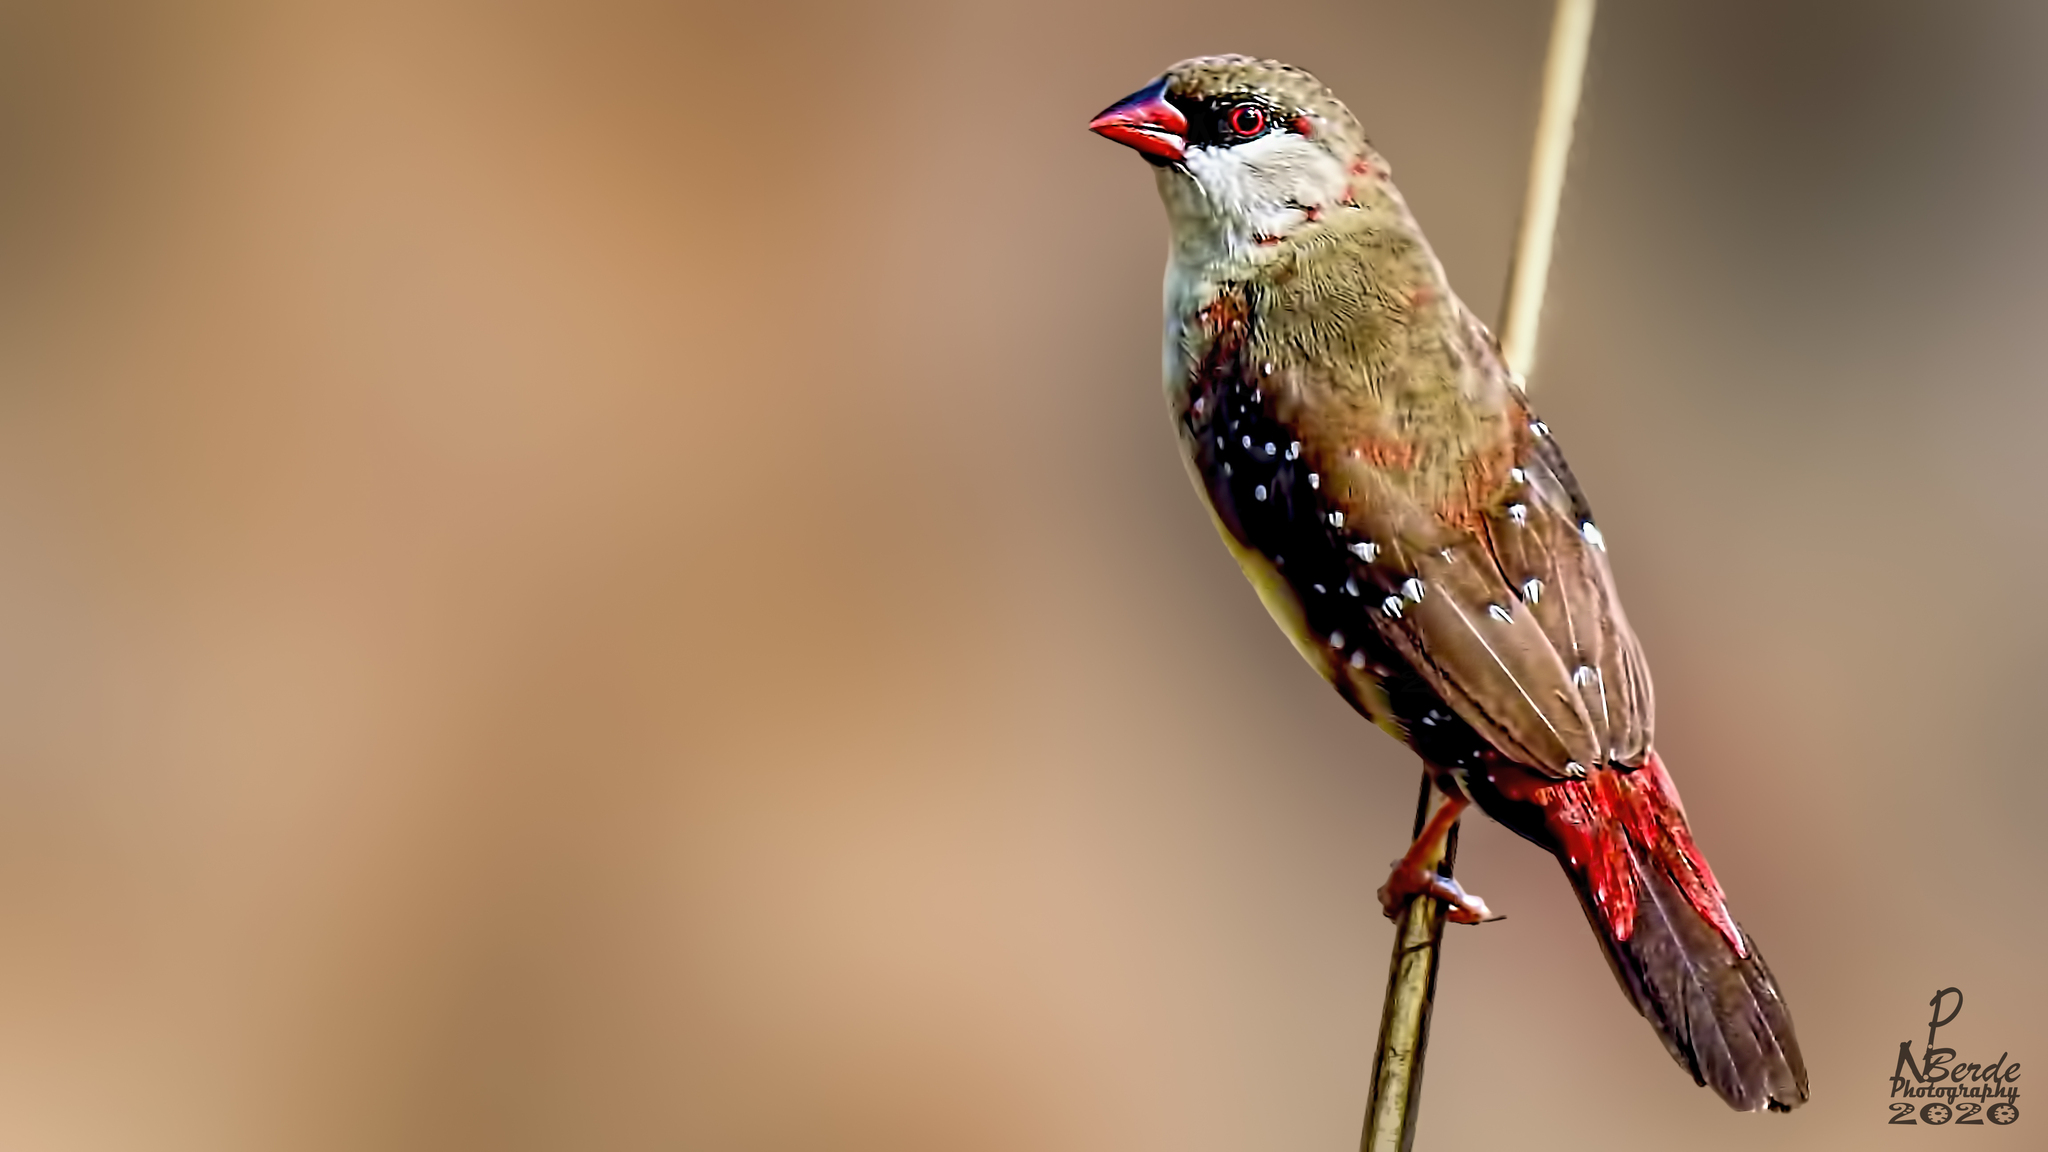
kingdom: Animalia
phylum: Chordata
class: Aves
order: Passeriformes
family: Estrildidae
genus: Amandava
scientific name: Amandava amandava
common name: Red avadavat
